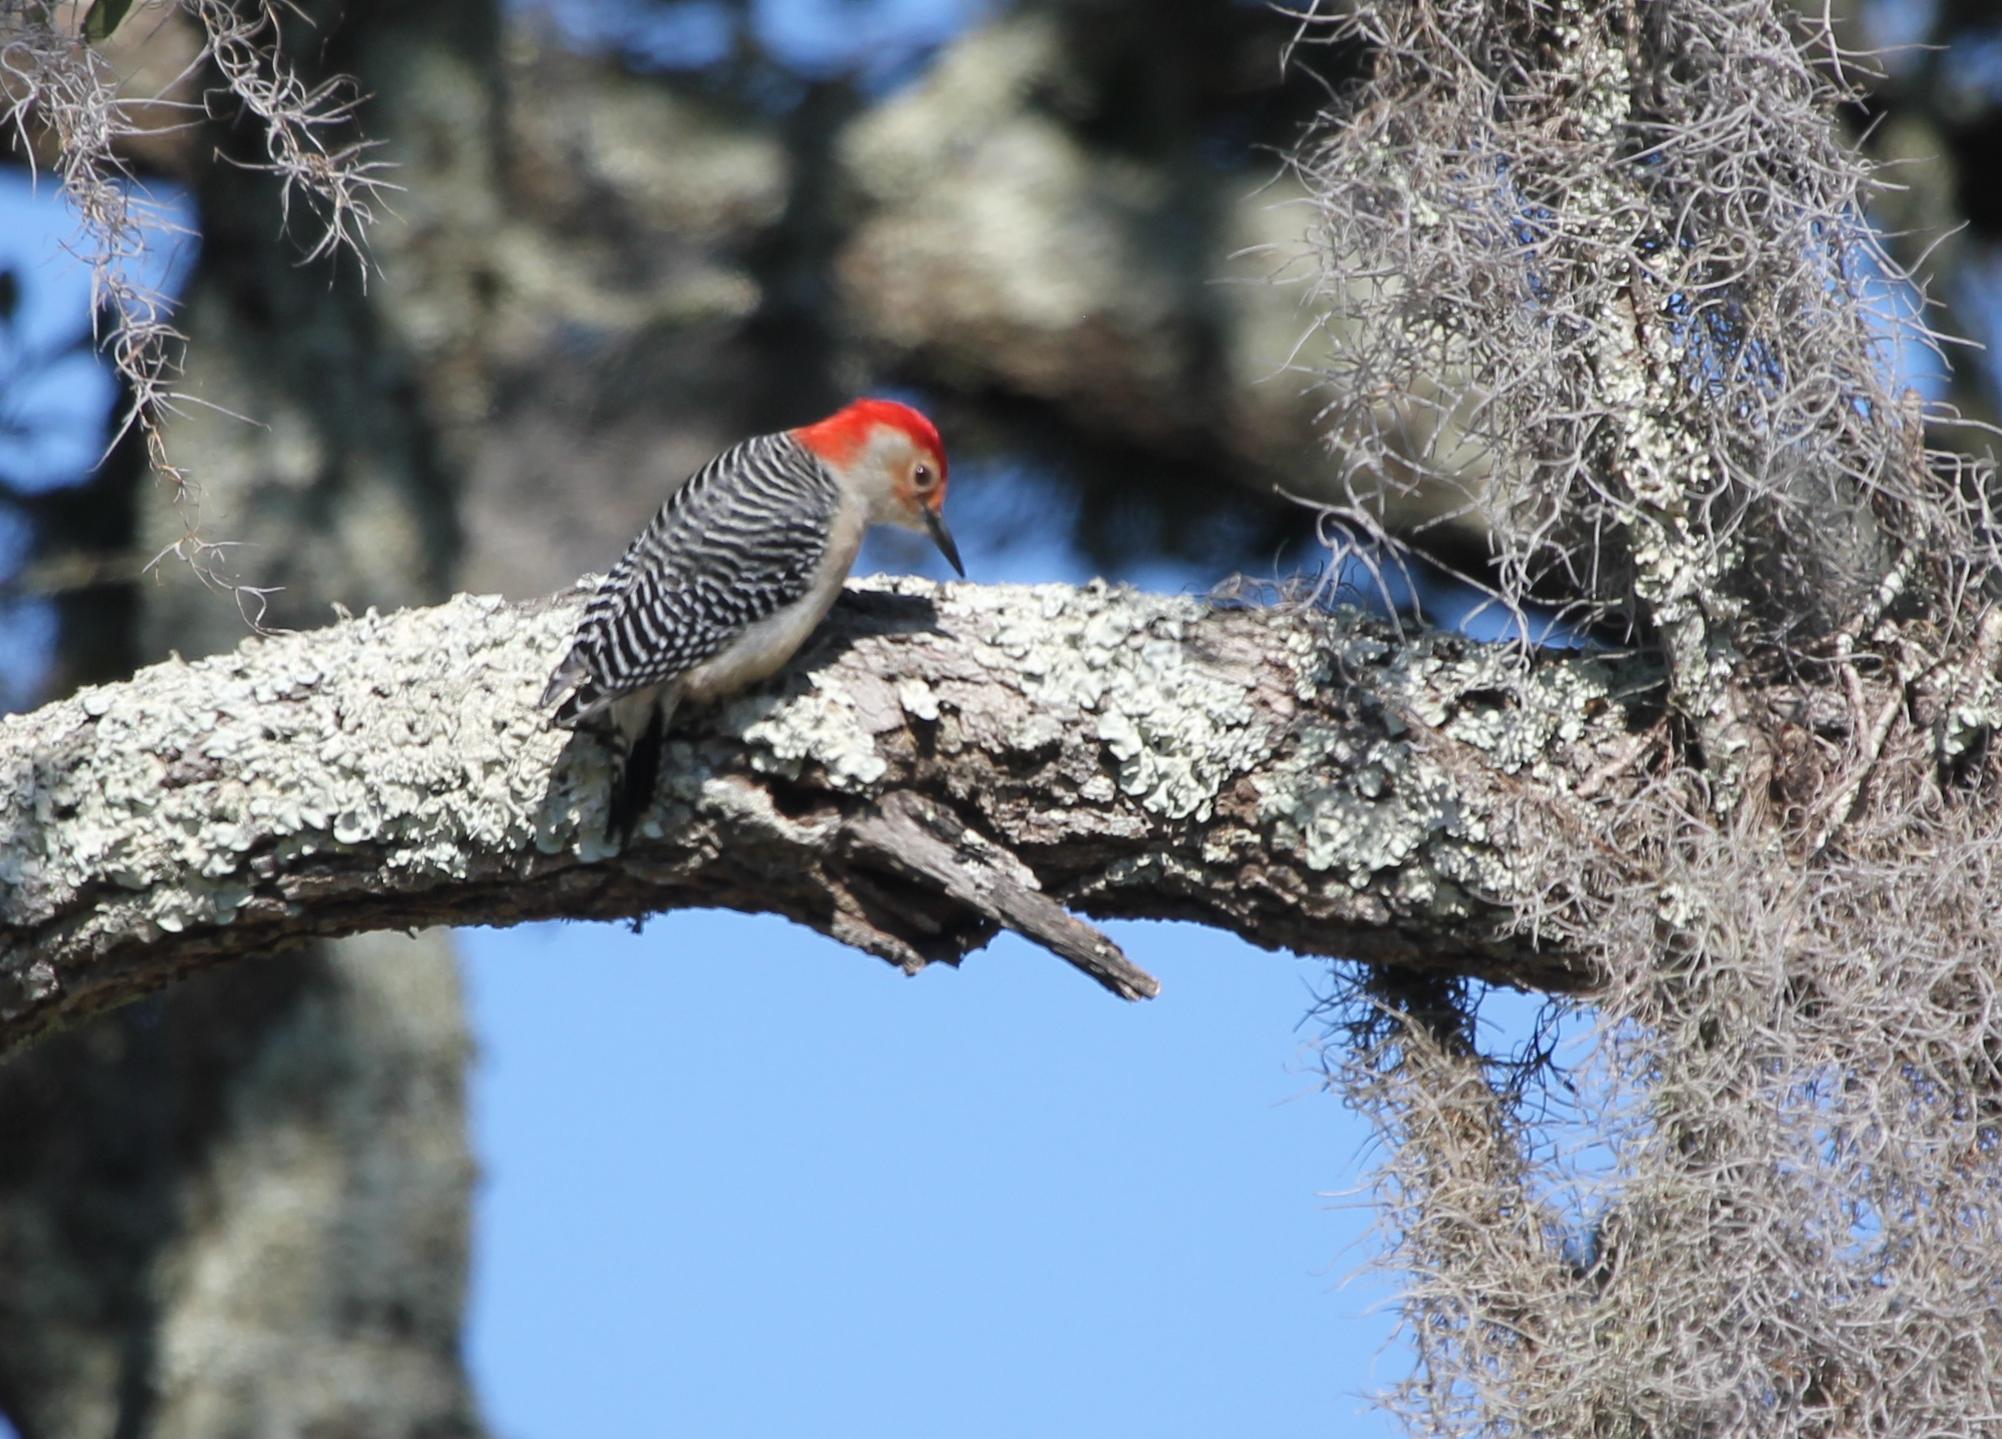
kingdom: Animalia
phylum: Chordata
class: Aves
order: Piciformes
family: Picidae
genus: Melanerpes
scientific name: Melanerpes carolinus
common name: Red-bellied woodpecker
